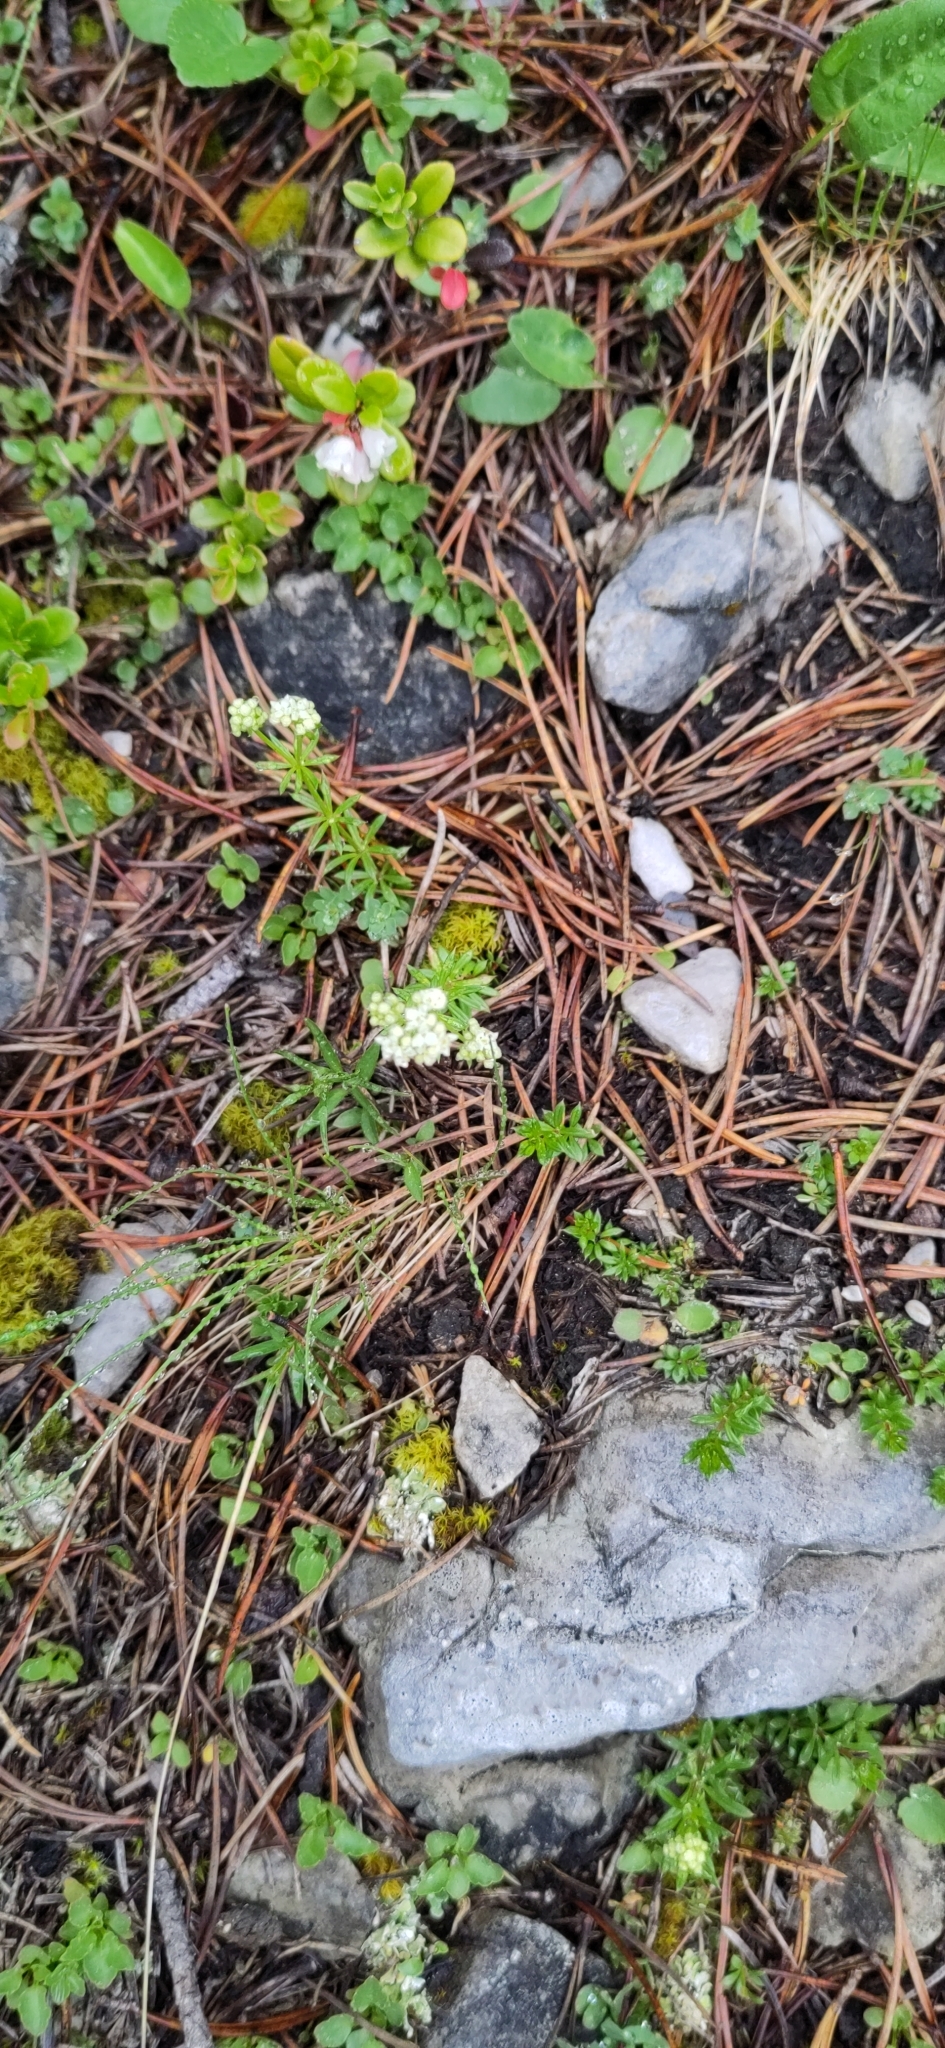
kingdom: Plantae
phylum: Tracheophyta
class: Magnoliopsida
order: Gentianales
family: Rubiaceae
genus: Galium
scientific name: Galium anisophyllon
